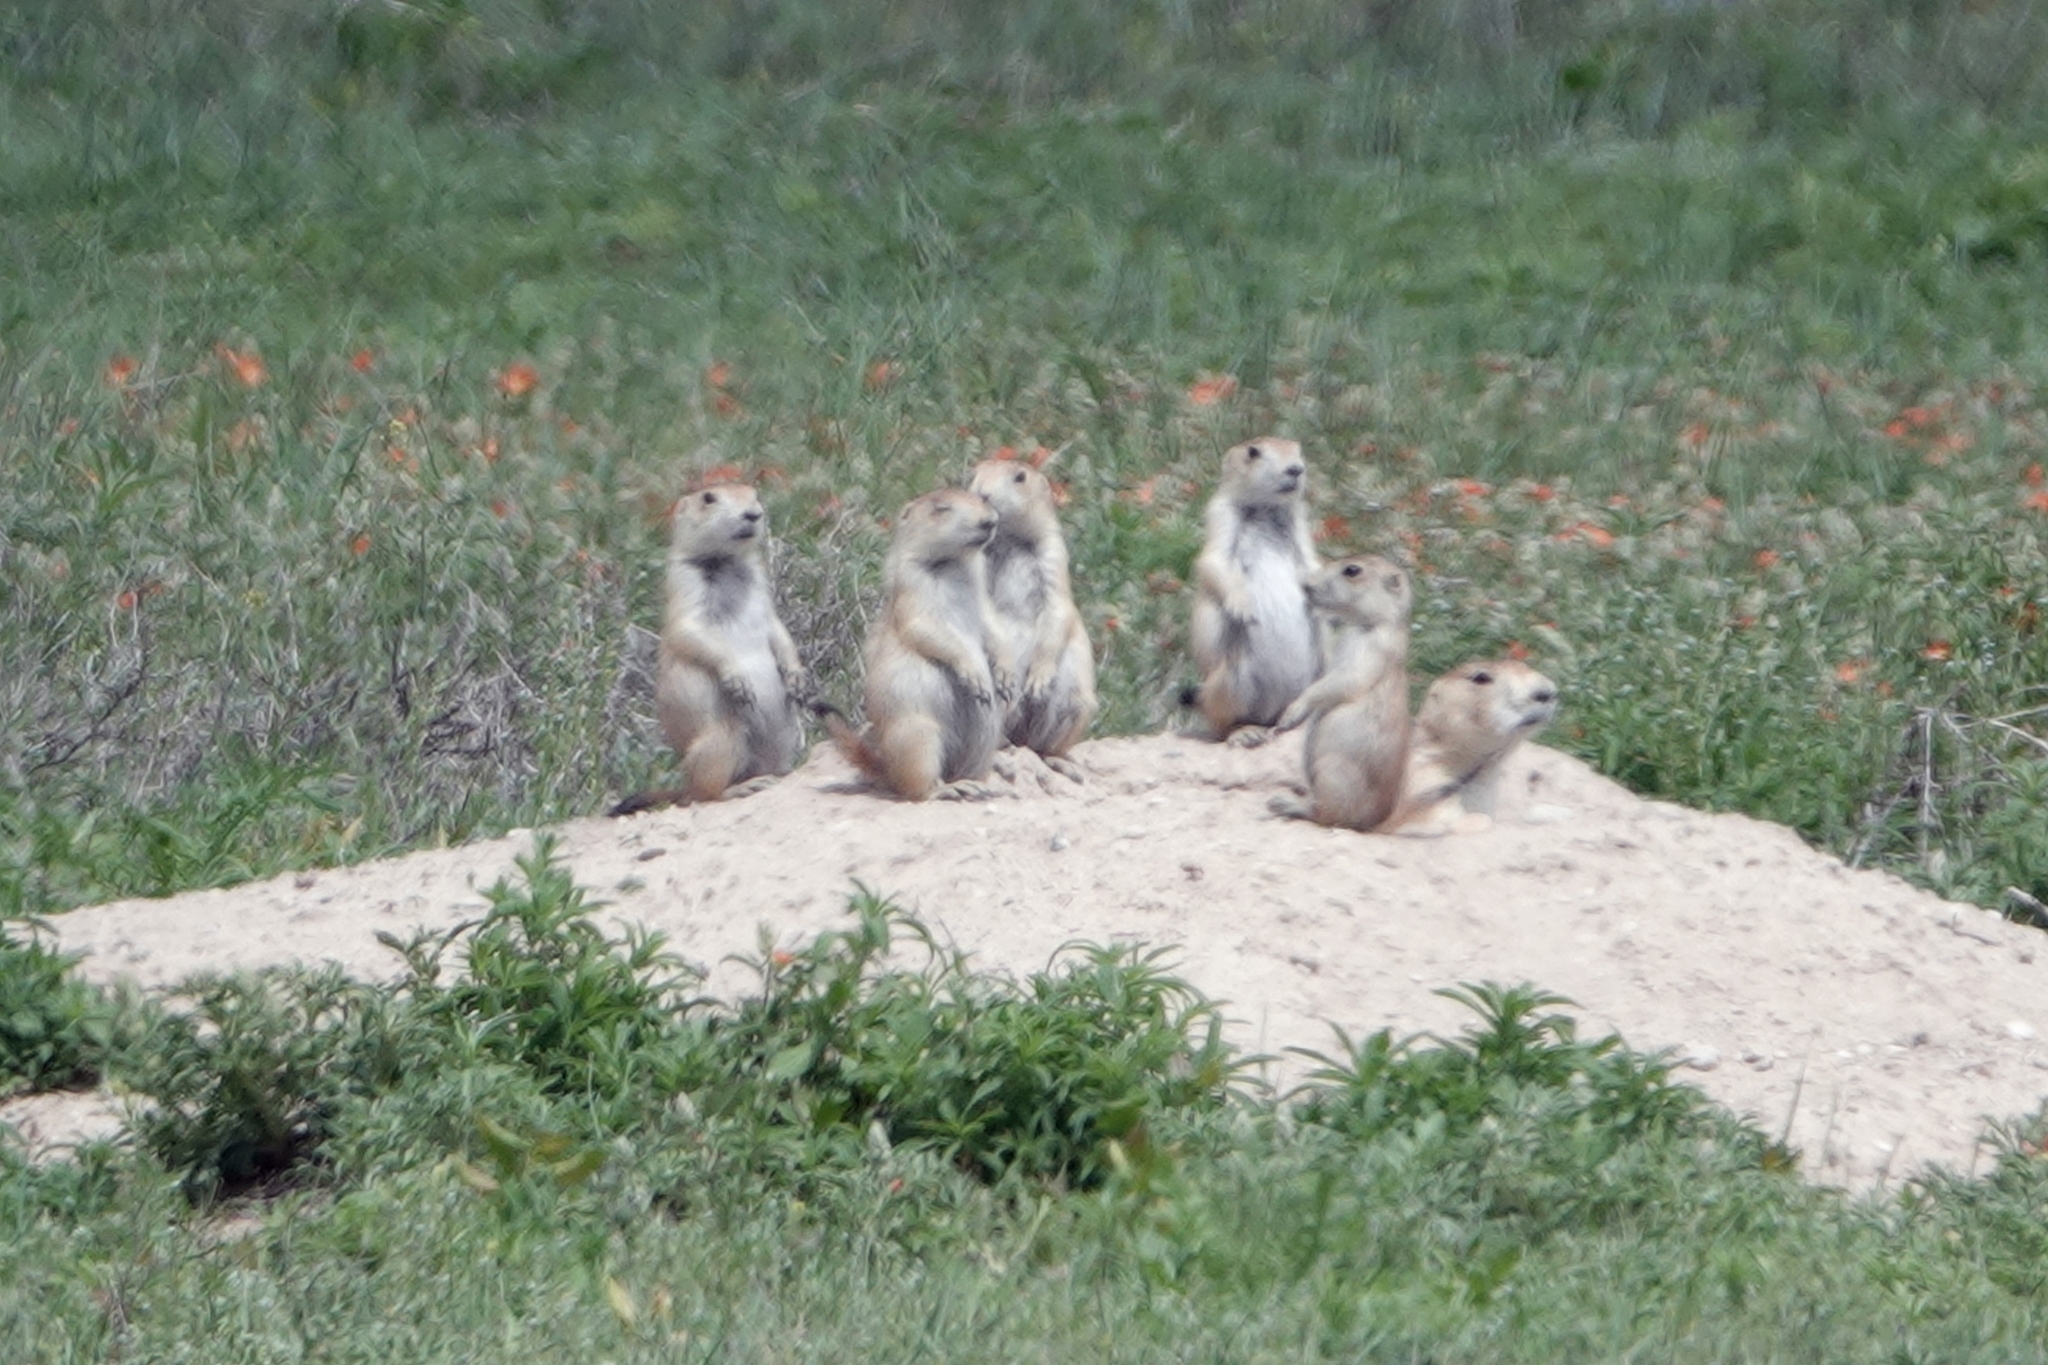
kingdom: Animalia
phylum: Chordata
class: Mammalia
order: Rodentia
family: Sciuridae
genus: Cynomys
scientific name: Cynomys ludovicianus
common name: Black-tailed prairie dog
